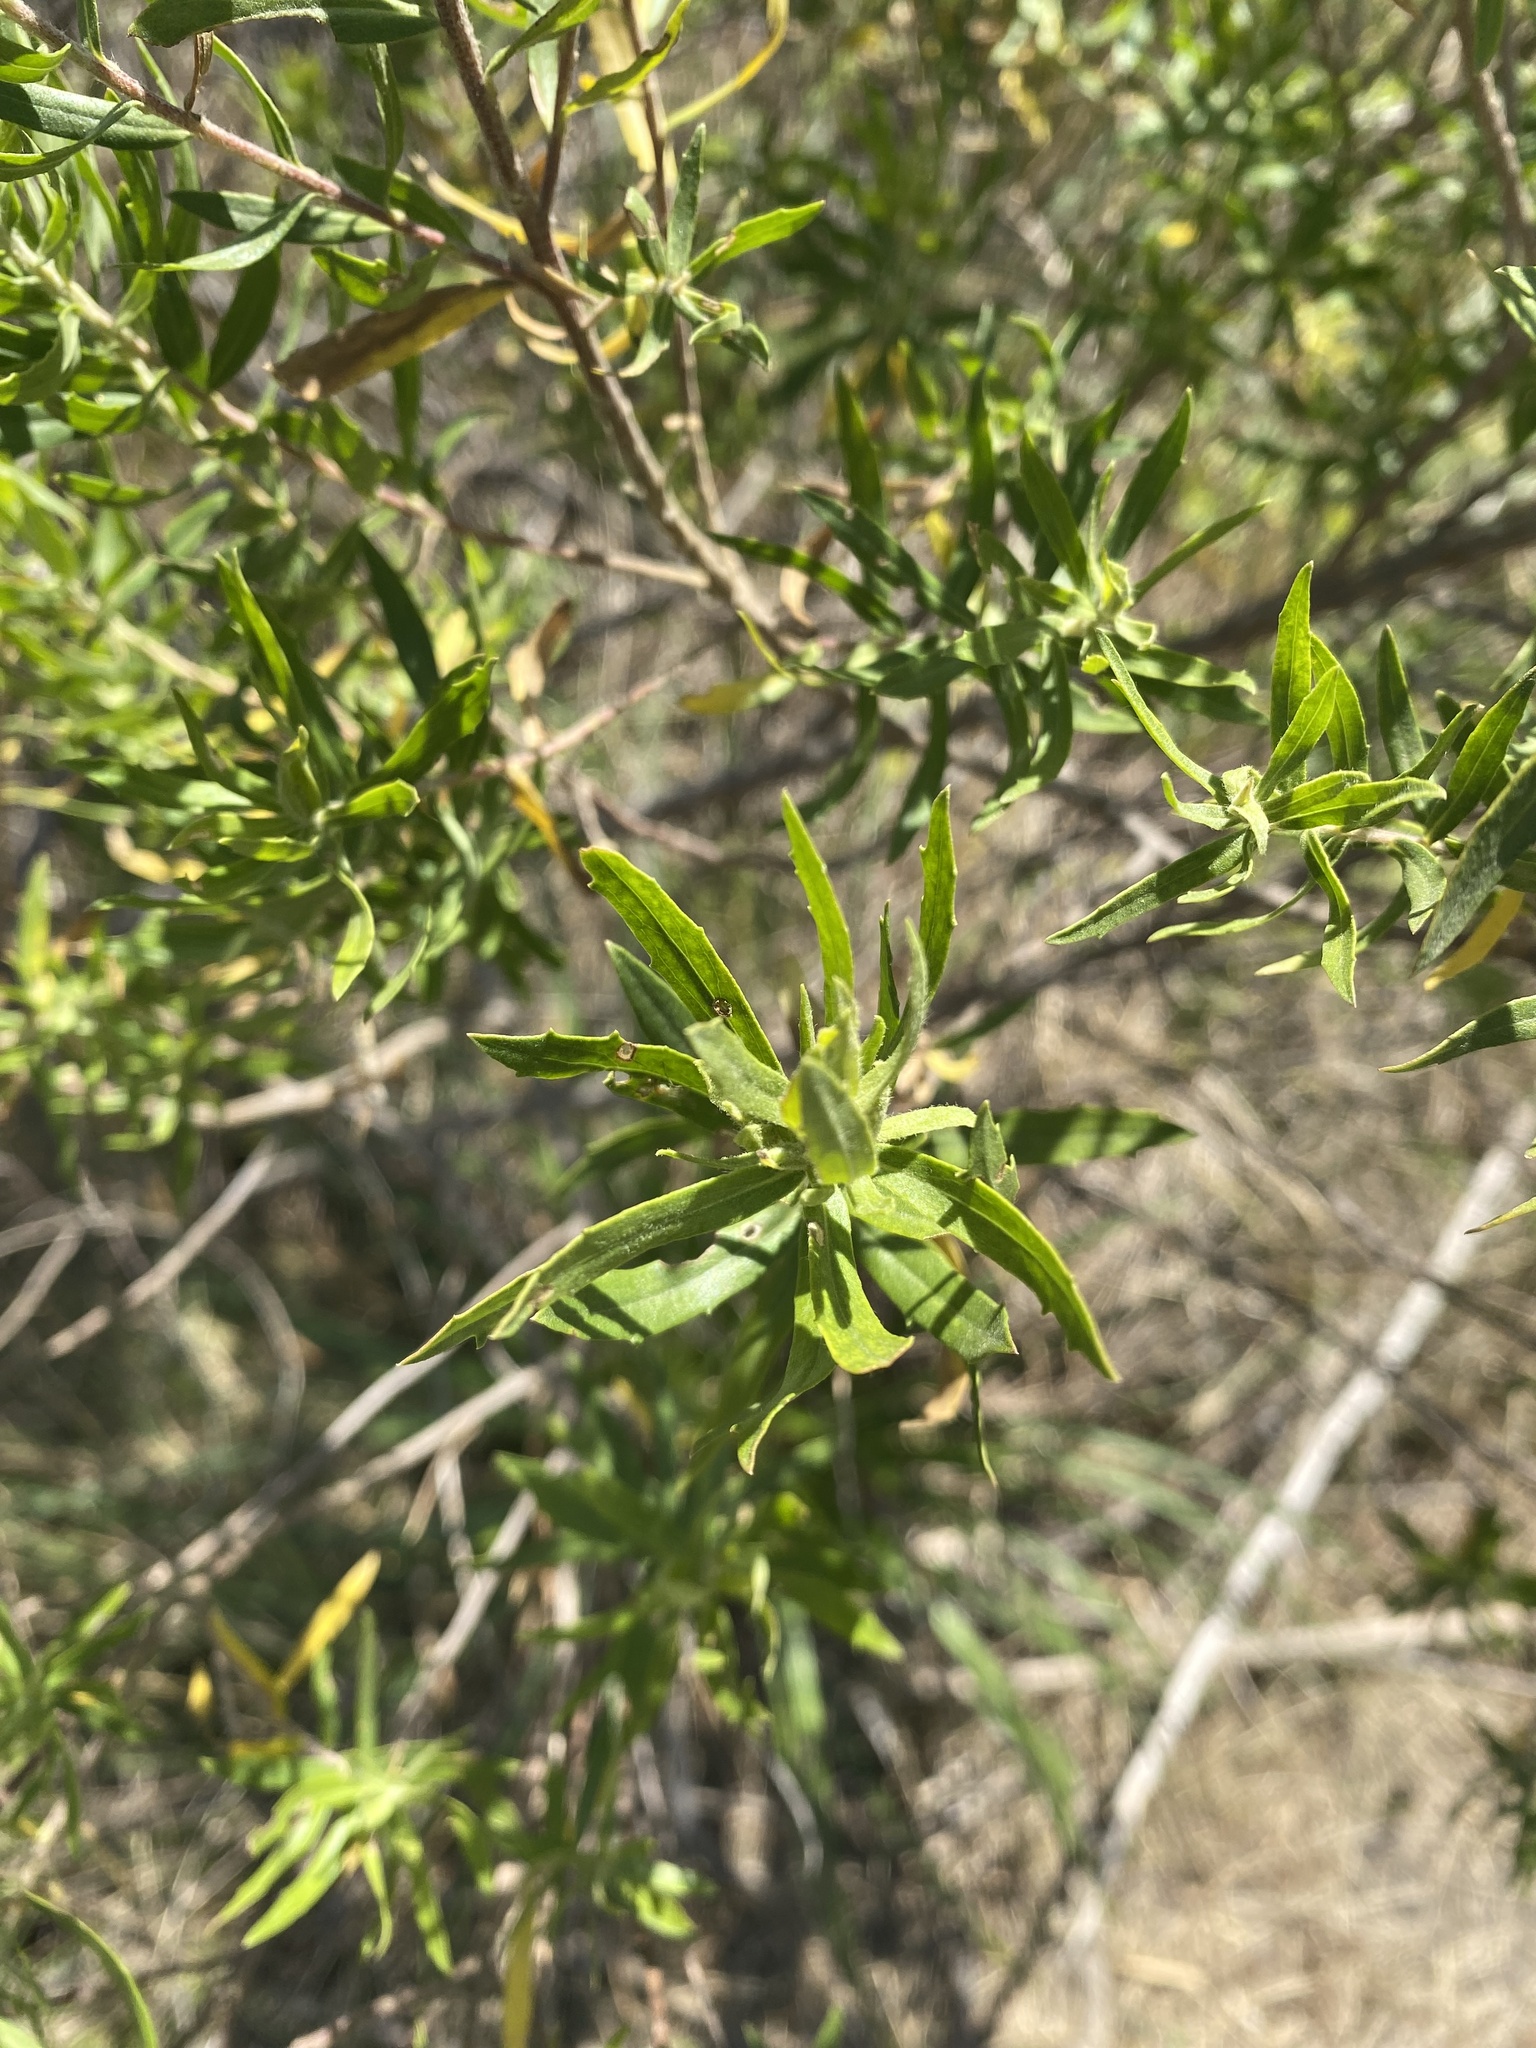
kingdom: Plantae
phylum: Tracheophyta
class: Magnoliopsida
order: Asterales
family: Asteraceae
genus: Baccharis
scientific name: Baccharis dracunculifolia
